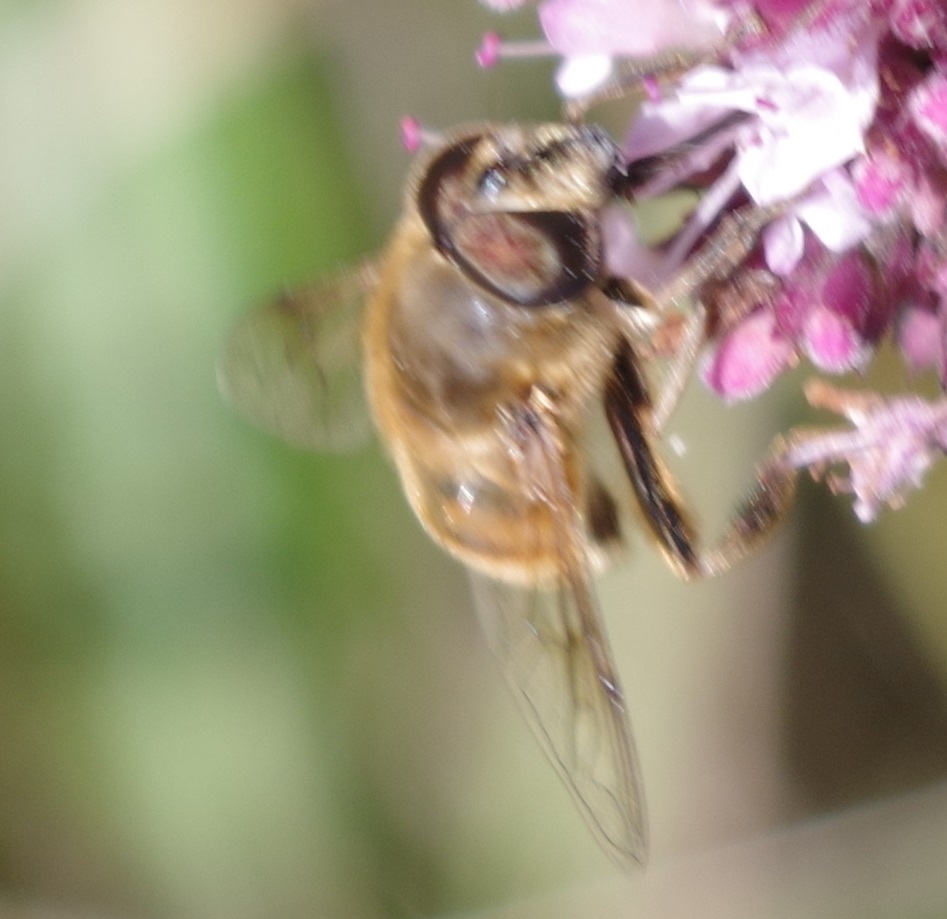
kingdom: Animalia
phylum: Arthropoda
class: Insecta
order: Diptera
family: Syrphidae
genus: Eristalis
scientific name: Eristalis tenax
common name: Drone fly
